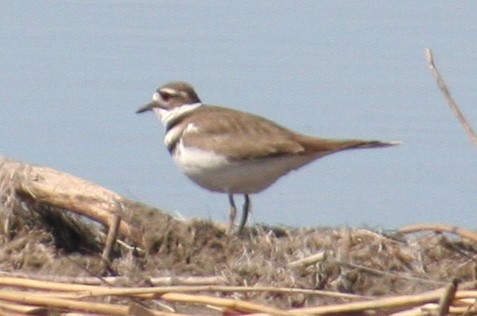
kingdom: Animalia
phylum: Chordata
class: Aves
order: Charadriiformes
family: Charadriidae
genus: Charadrius
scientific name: Charadrius vociferus
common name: Killdeer
